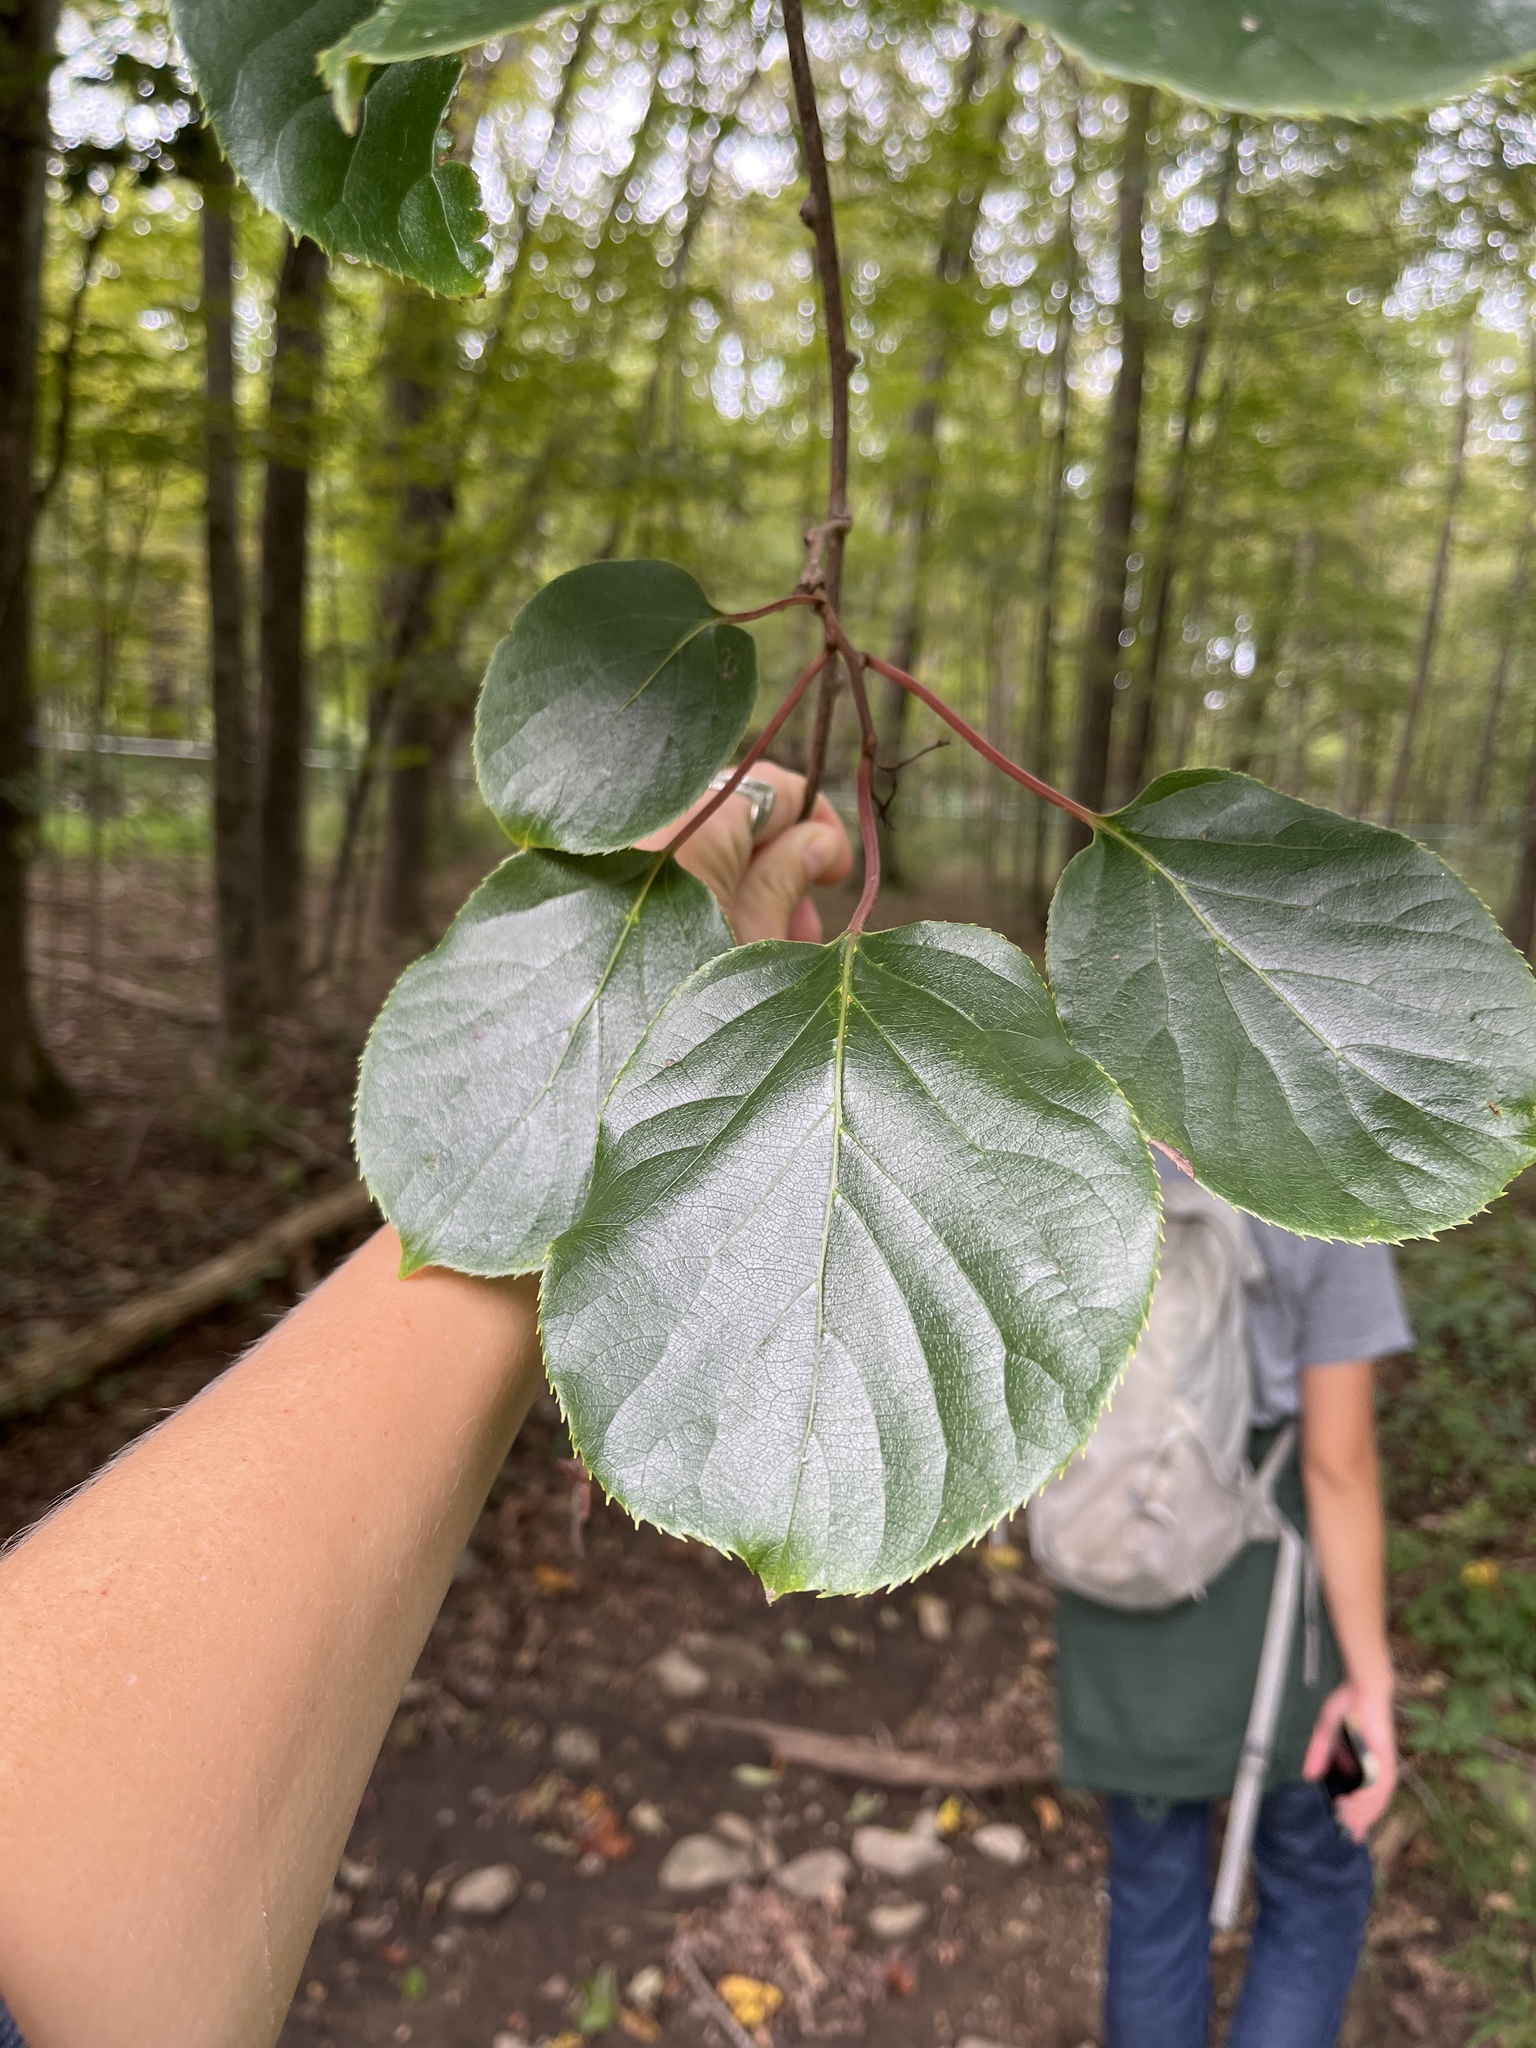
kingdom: Plantae
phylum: Tracheophyta
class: Magnoliopsida
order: Ericales
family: Actinidiaceae
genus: Actinidia
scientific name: Actinidia arguta
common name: Tara vine
